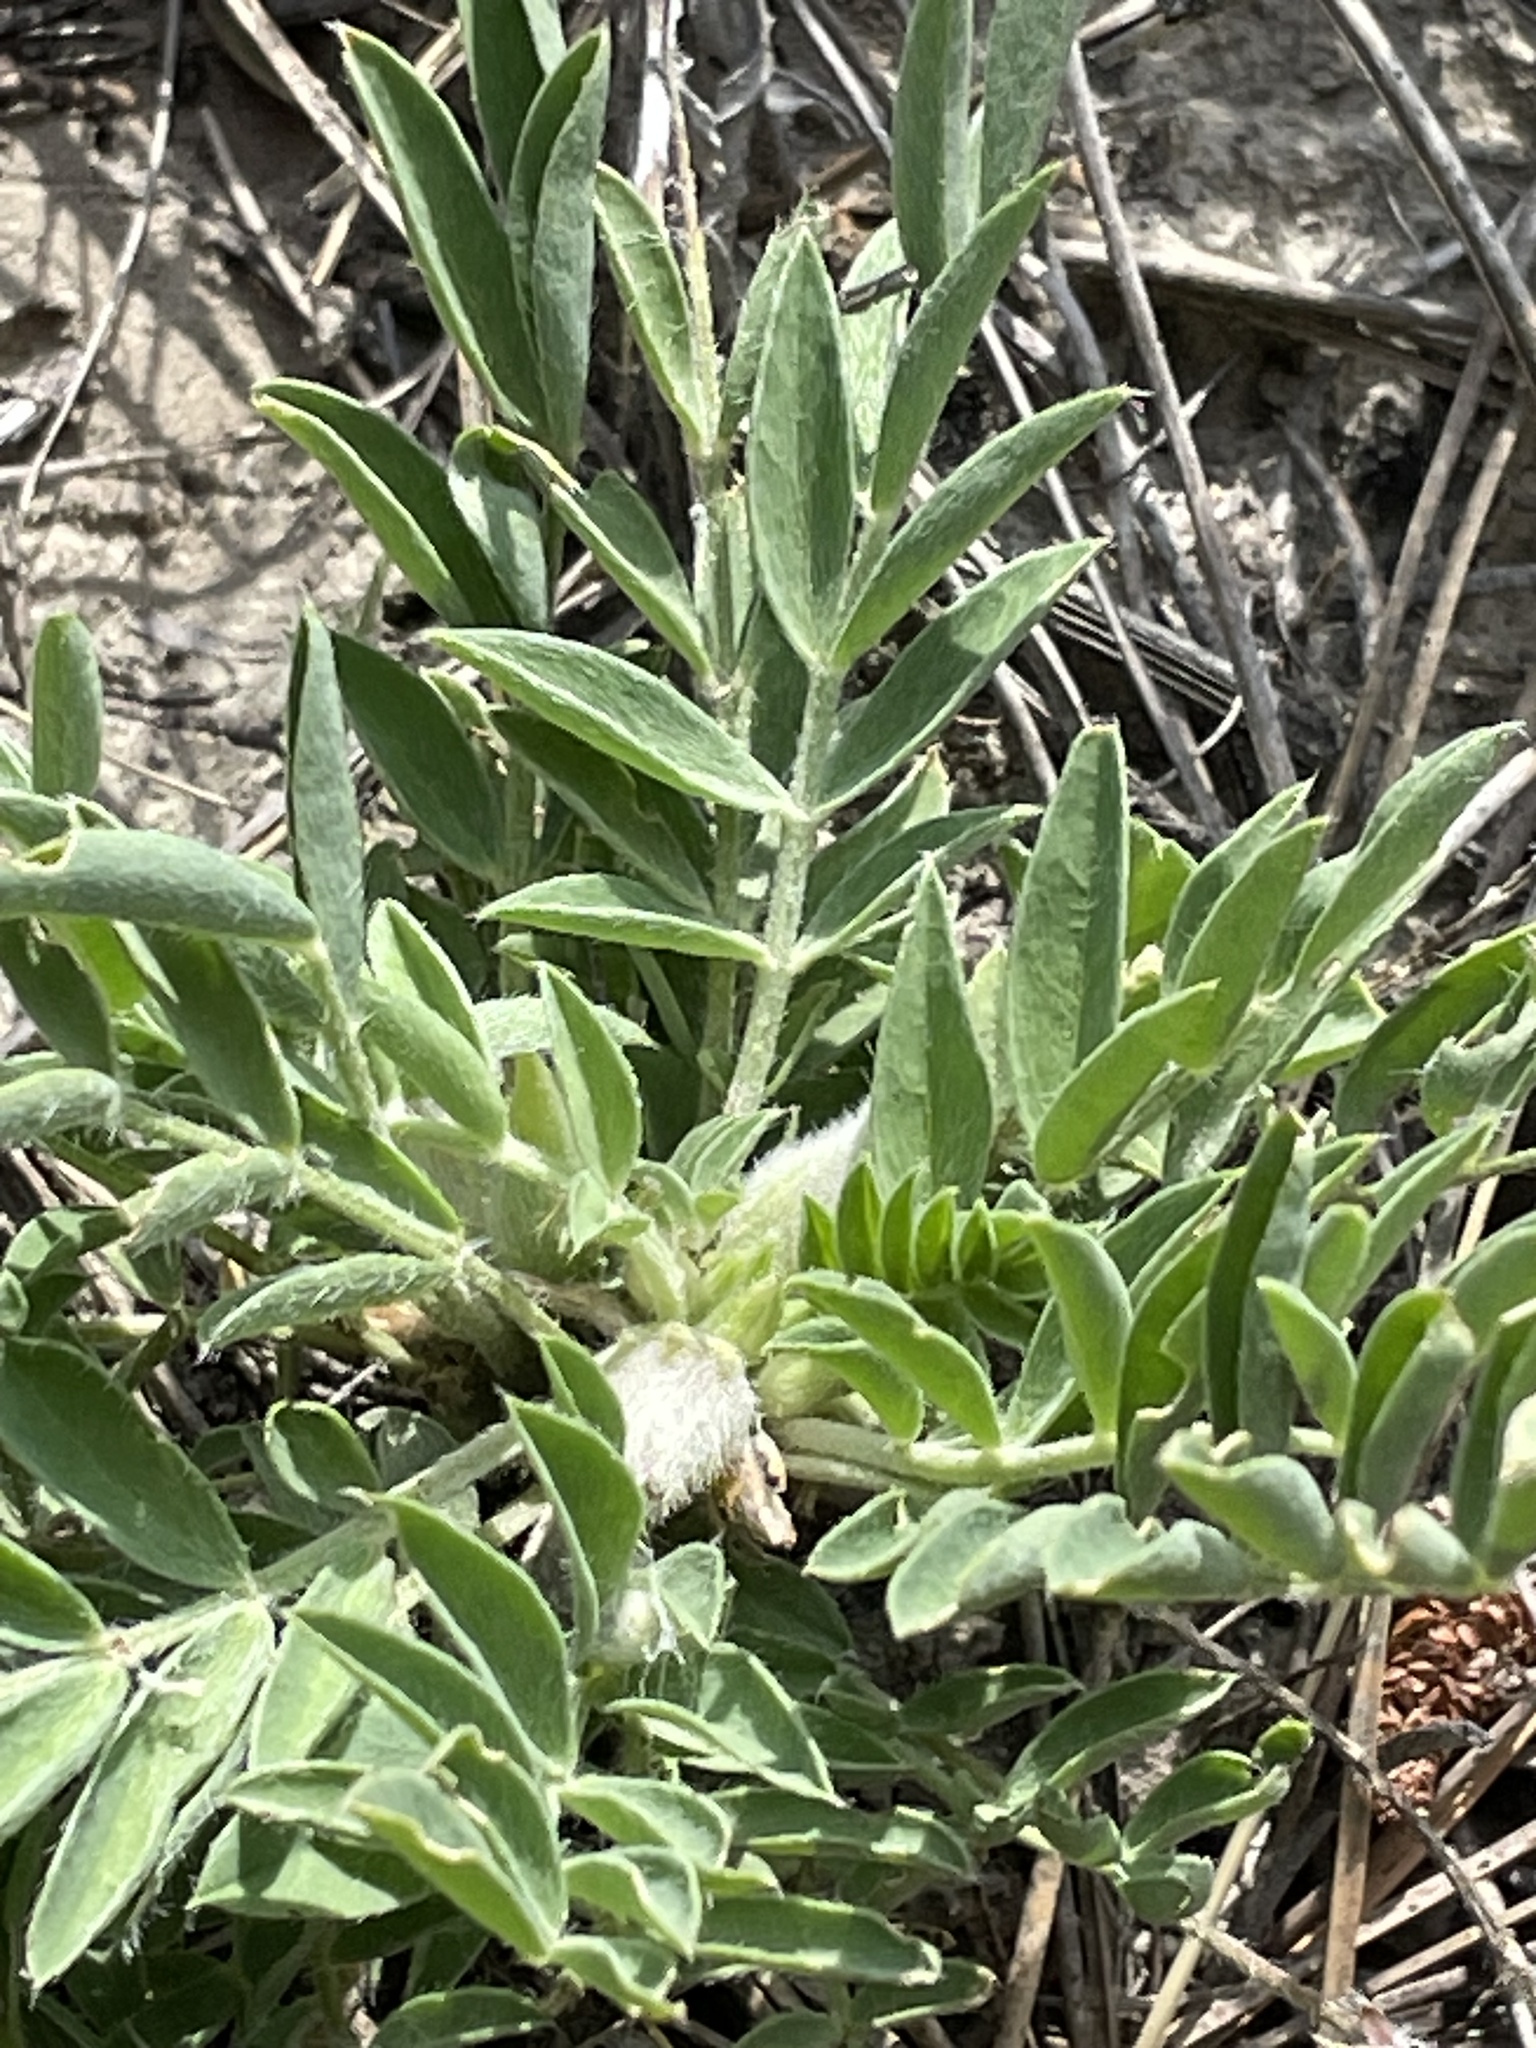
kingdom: Plantae
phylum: Tracheophyta
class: Magnoliopsida
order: Fabales
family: Fabaceae
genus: Astragalus
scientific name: Astragalus lotiflorus
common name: Lotus milk-vetch
